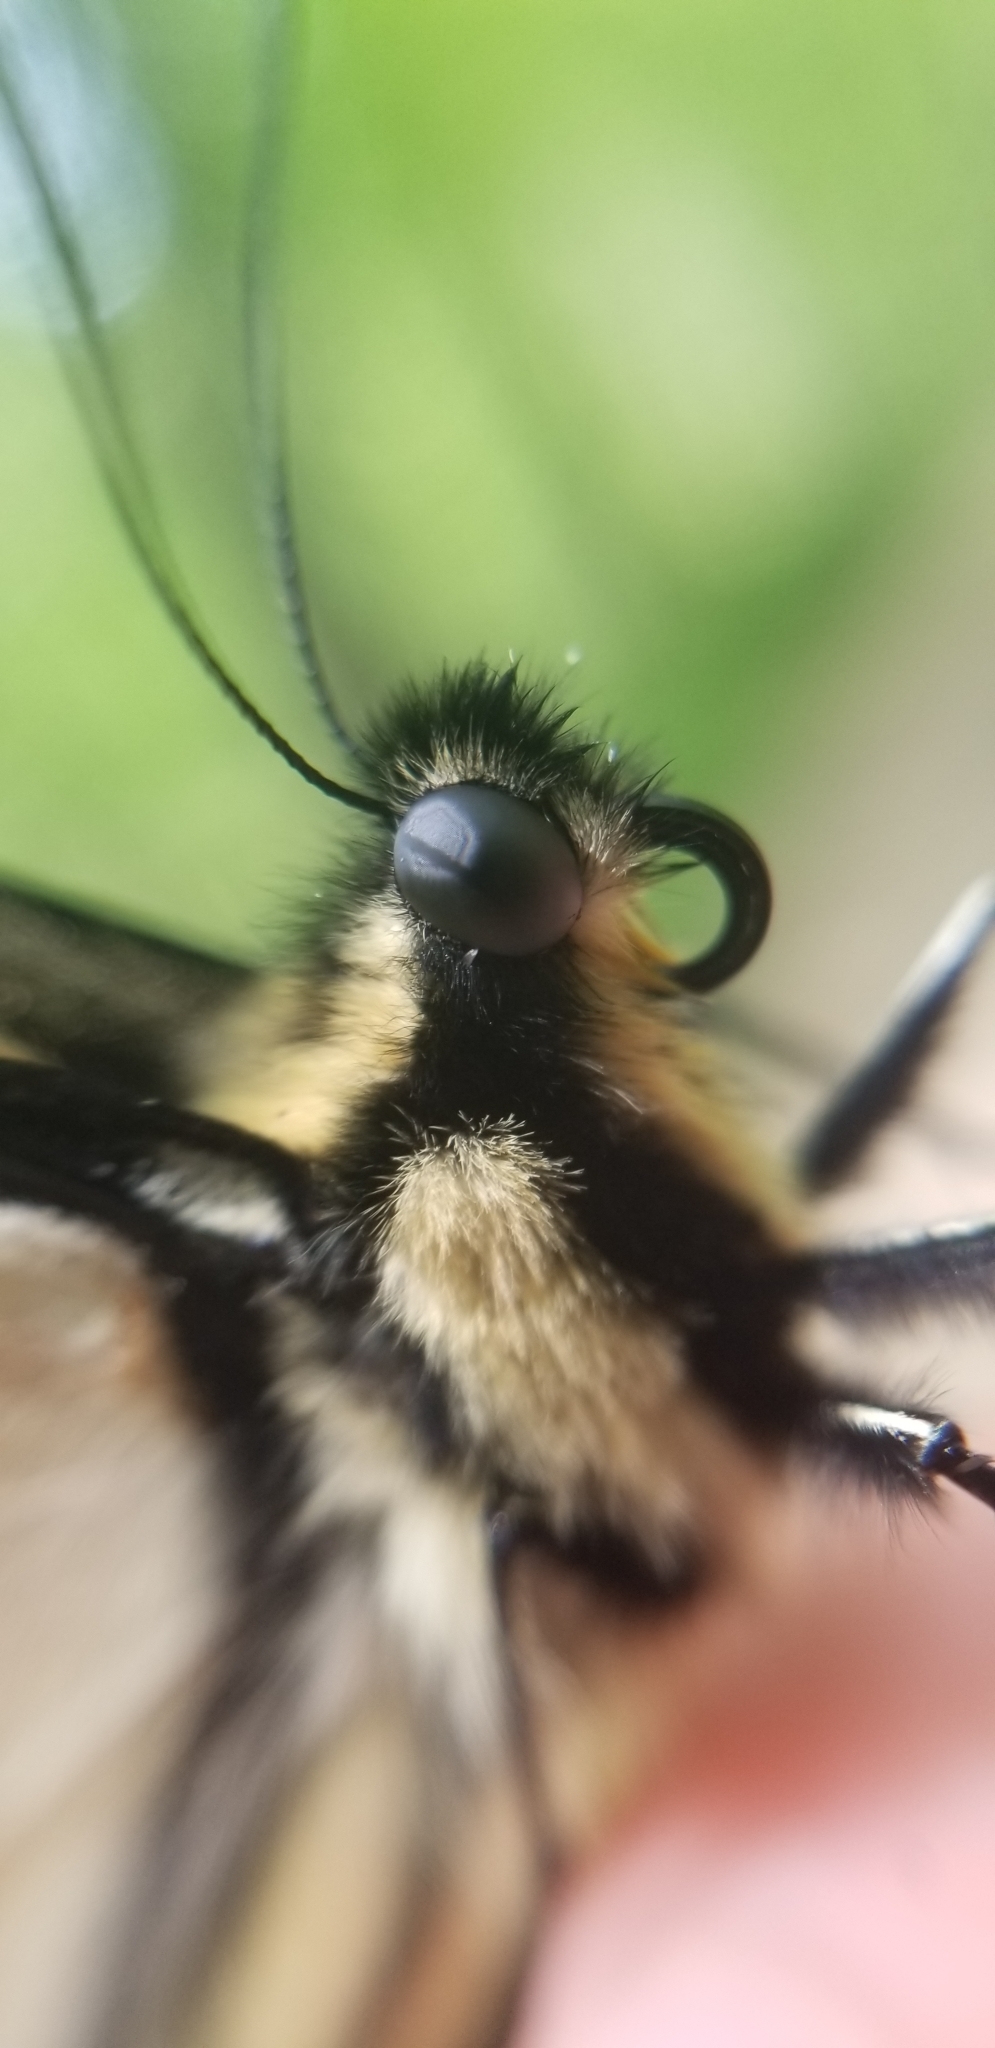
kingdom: Animalia
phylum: Arthropoda
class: Insecta
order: Lepidoptera
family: Papilionidae
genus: Papilio
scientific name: Papilio glaucus
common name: Tiger swallowtail
